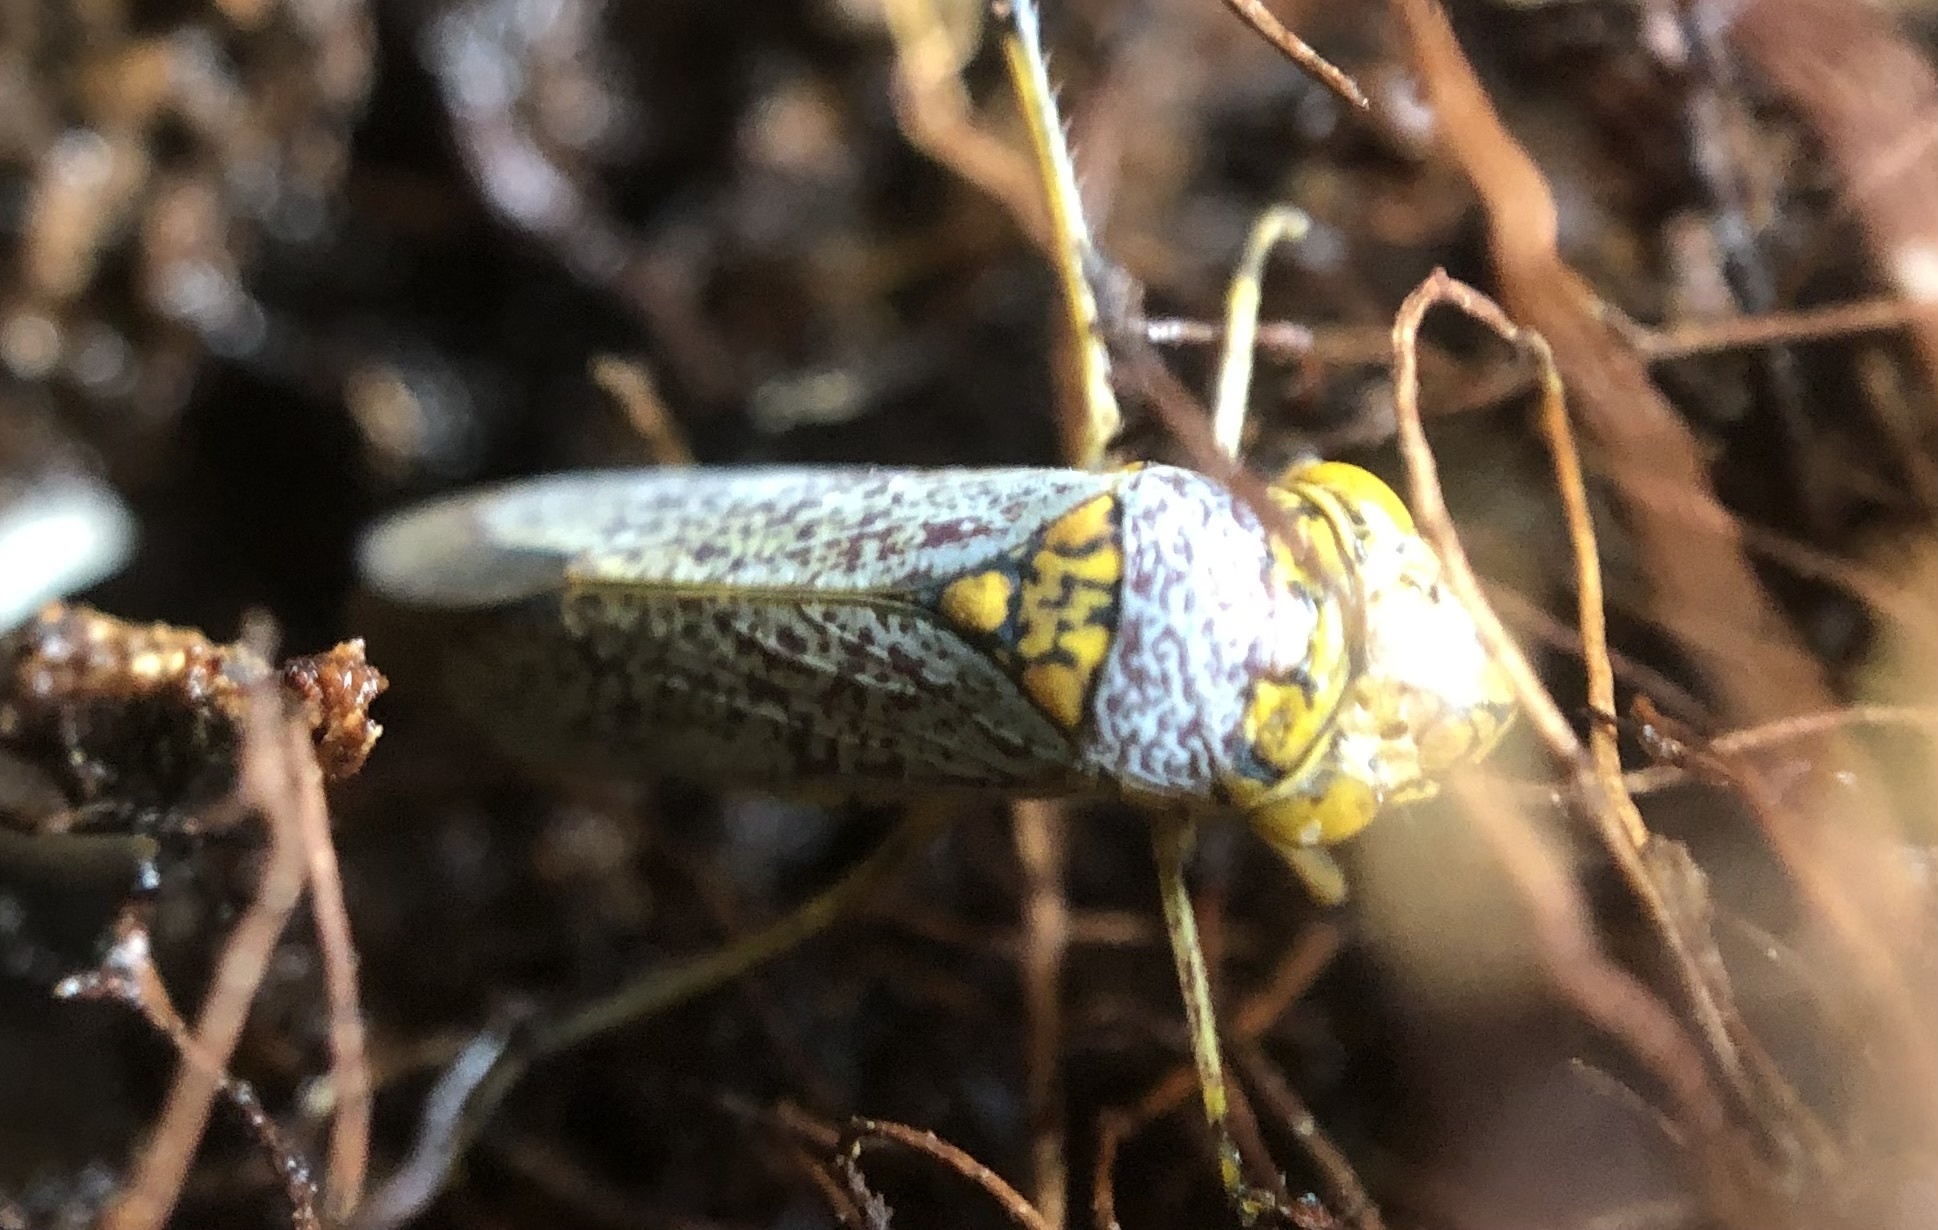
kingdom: Animalia
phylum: Arthropoda
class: Insecta
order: Hemiptera
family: Cicadellidae
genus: Oncometopia
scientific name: Oncometopia orbona
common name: Broad-headed sharpshooter
